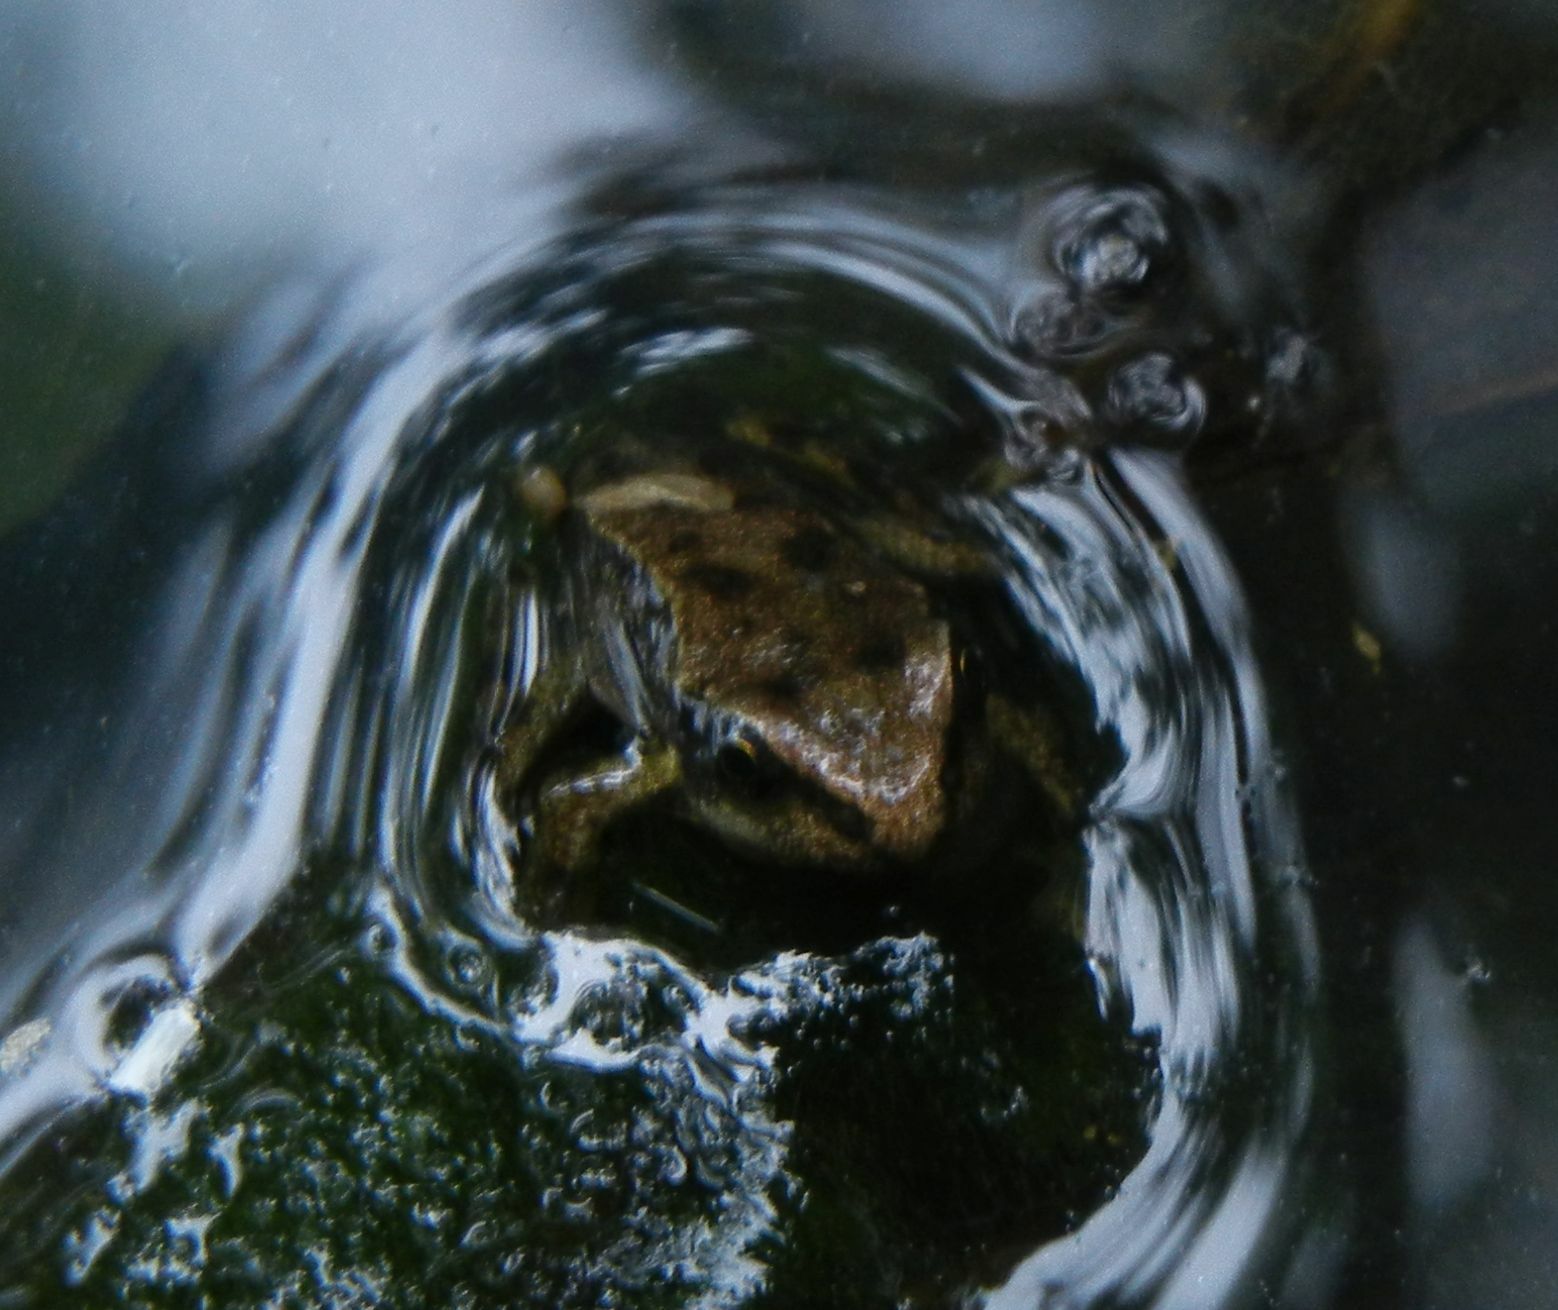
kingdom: Animalia
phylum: Chordata
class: Amphibia
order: Anura
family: Ranidae
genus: Rana
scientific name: Rana temporaria
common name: Common frog
